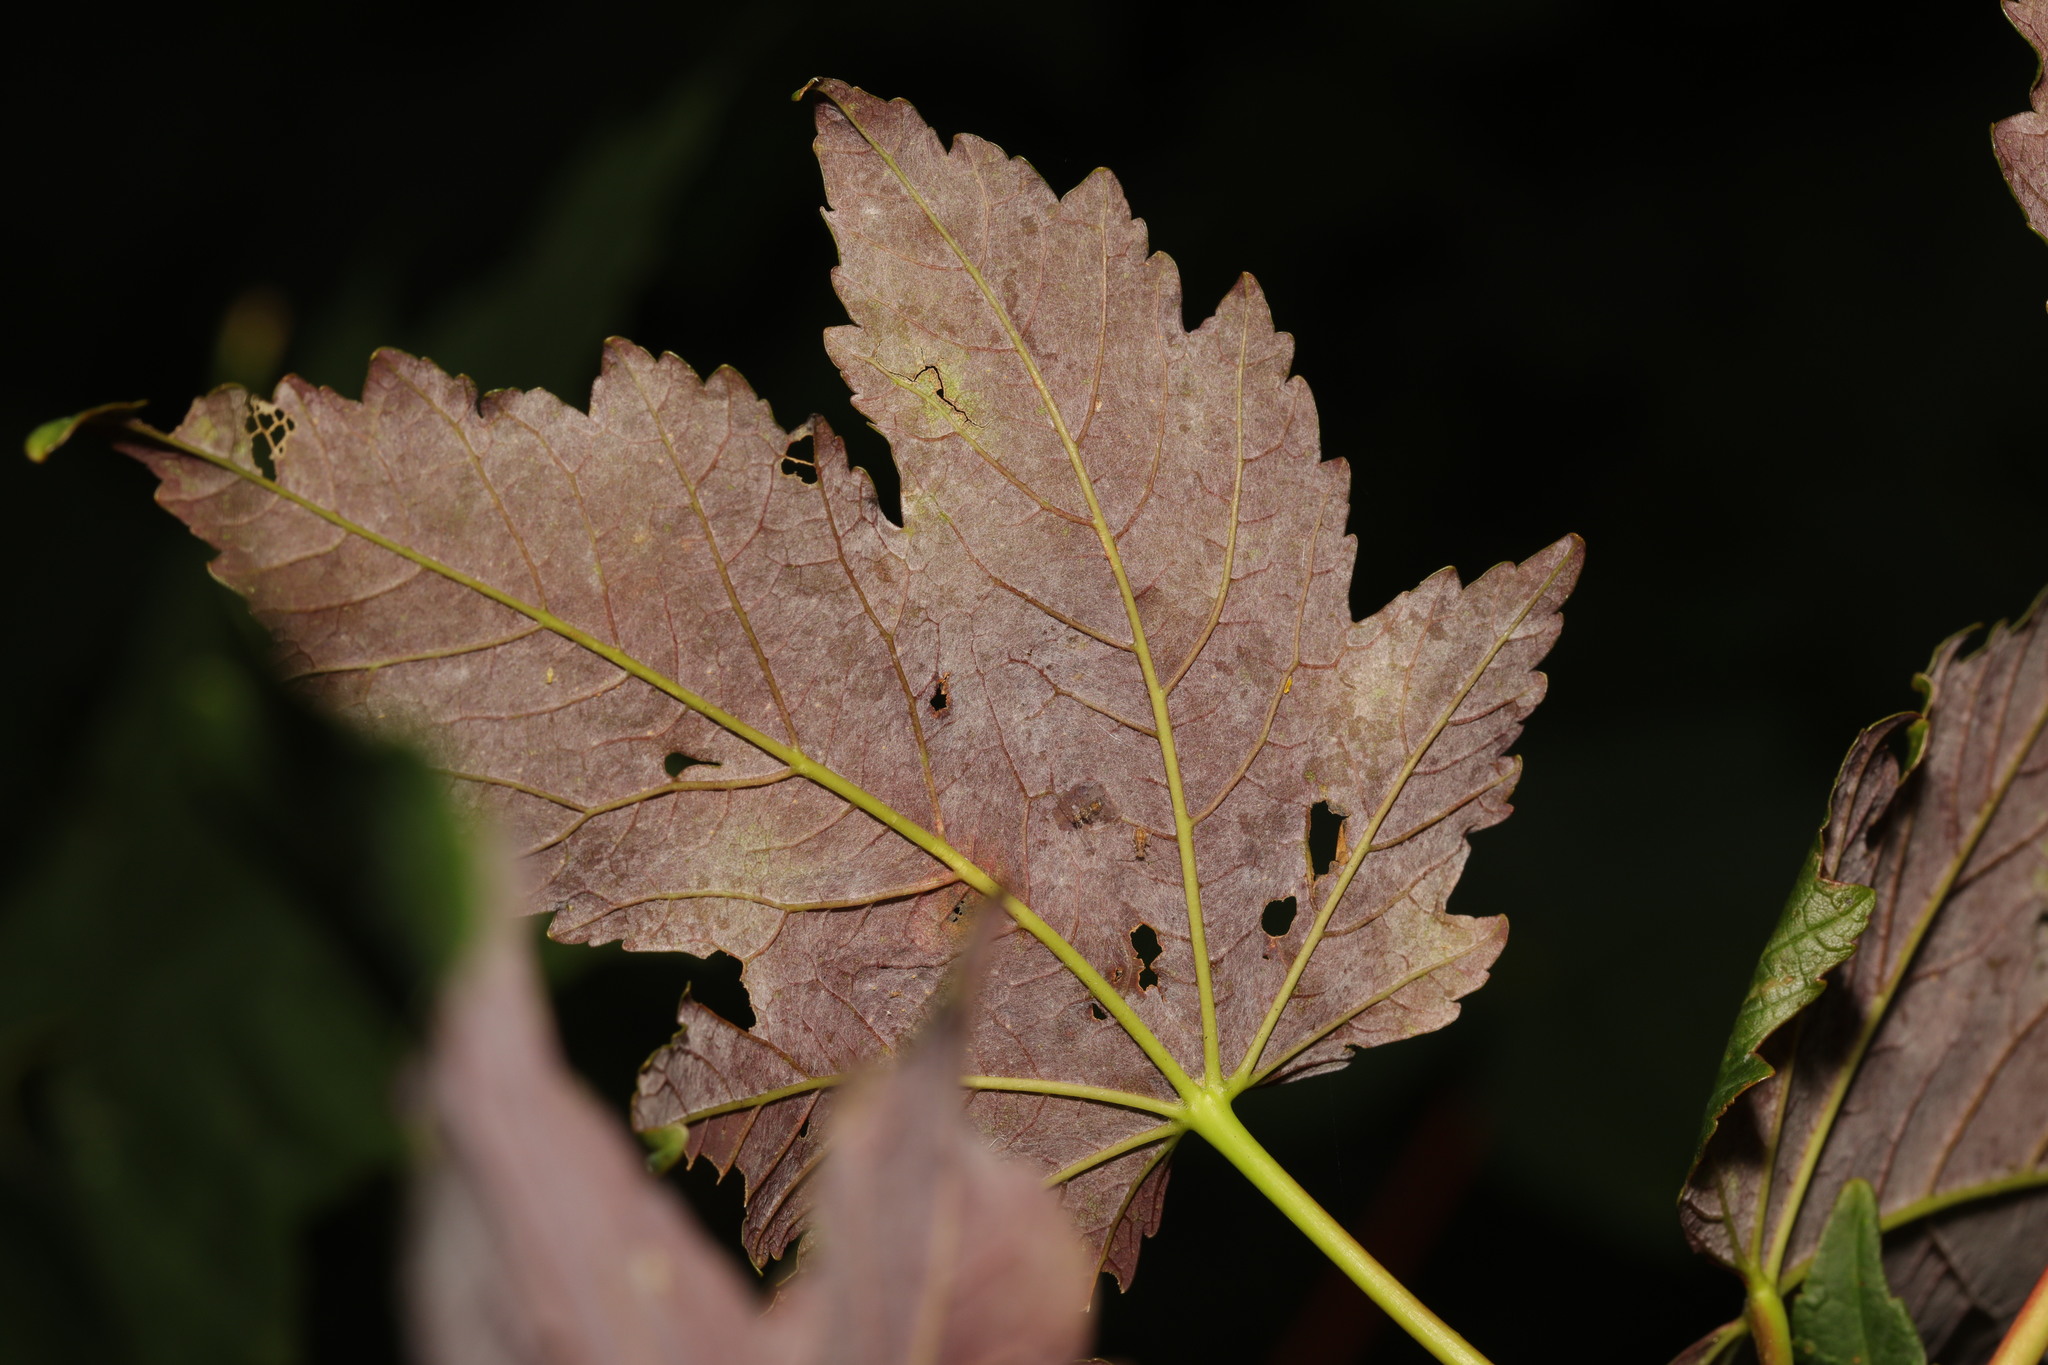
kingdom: Plantae
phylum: Tracheophyta
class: Magnoliopsida
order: Sapindales
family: Sapindaceae
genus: Acer
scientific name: Acer pseudoplatanus
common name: Sycamore
